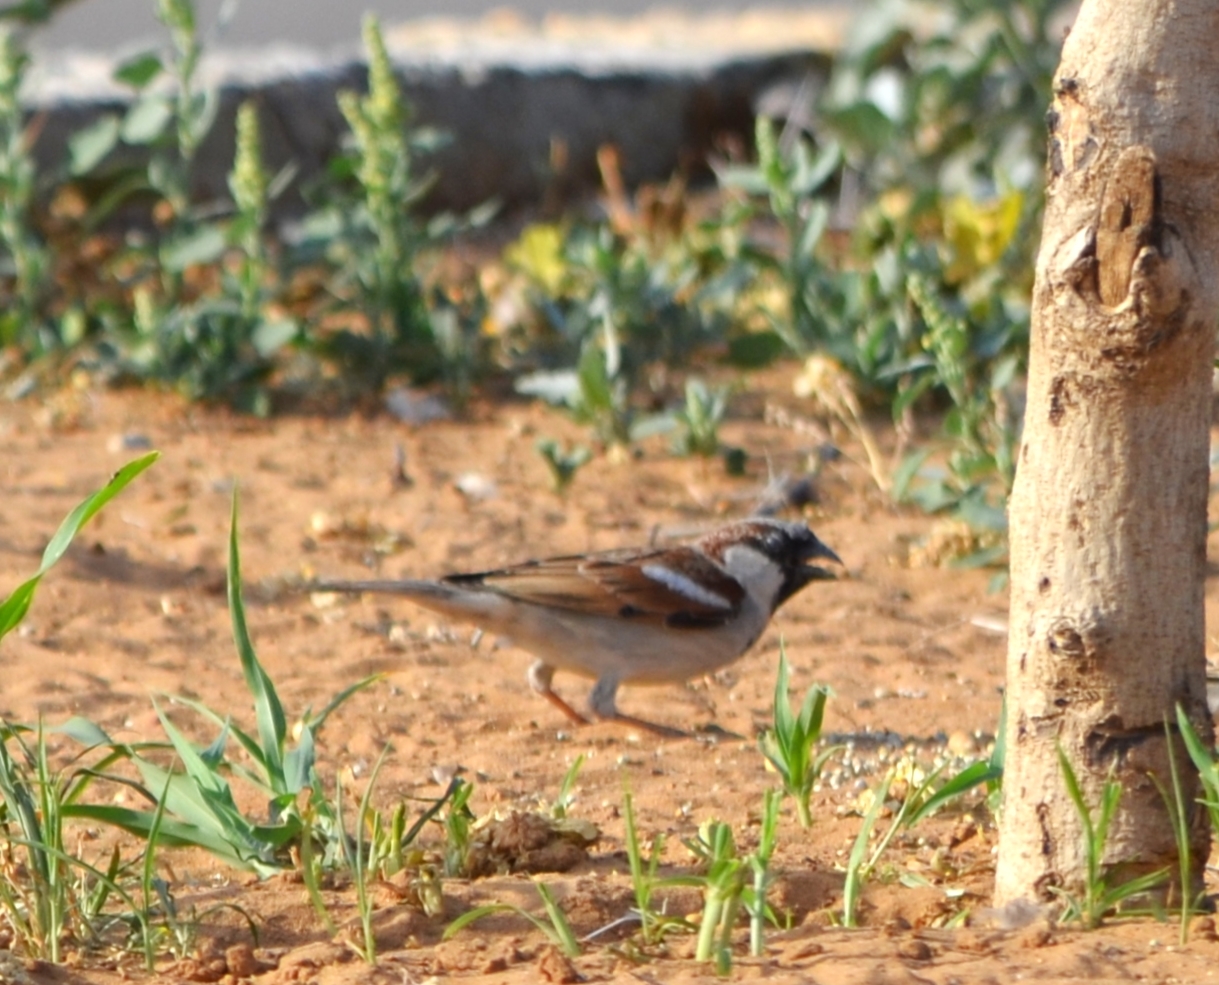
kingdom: Animalia
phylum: Chordata
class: Aves
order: Passeriformes
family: Passeridae
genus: Passer
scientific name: Passer domesticus
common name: House sparrow
